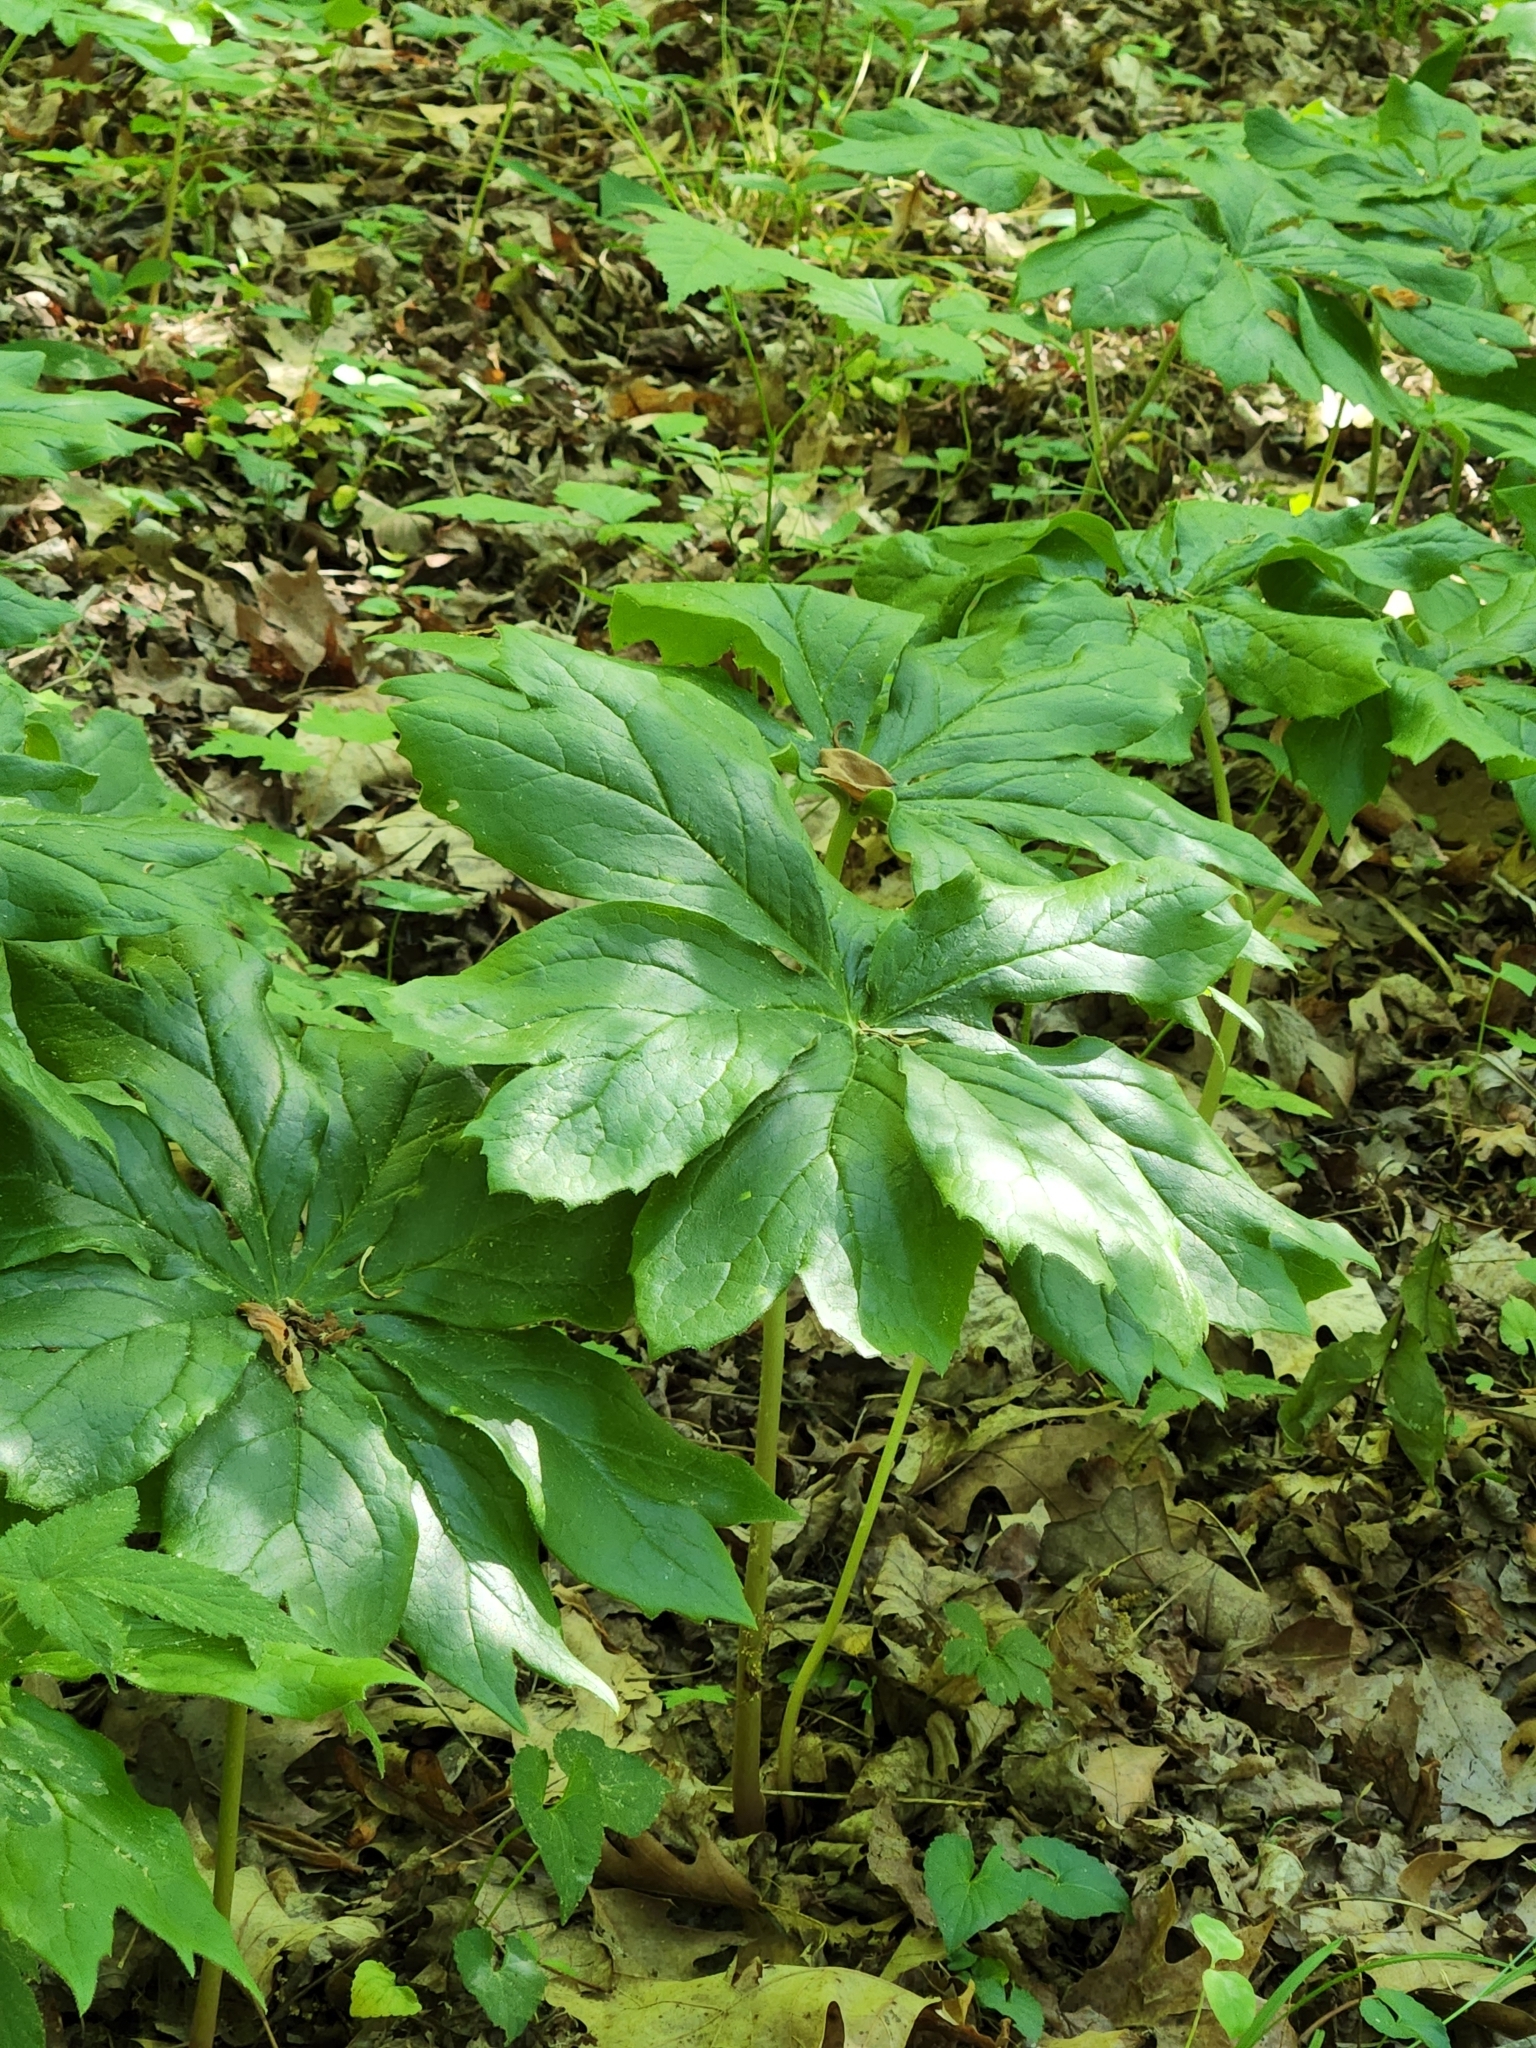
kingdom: Plantae
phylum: Tracheophyta
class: Magnoliopsida
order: Ranunculales
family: Berberidaceae
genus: Podophyllum
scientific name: Podophyllum peltatum
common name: Wild mandrake
